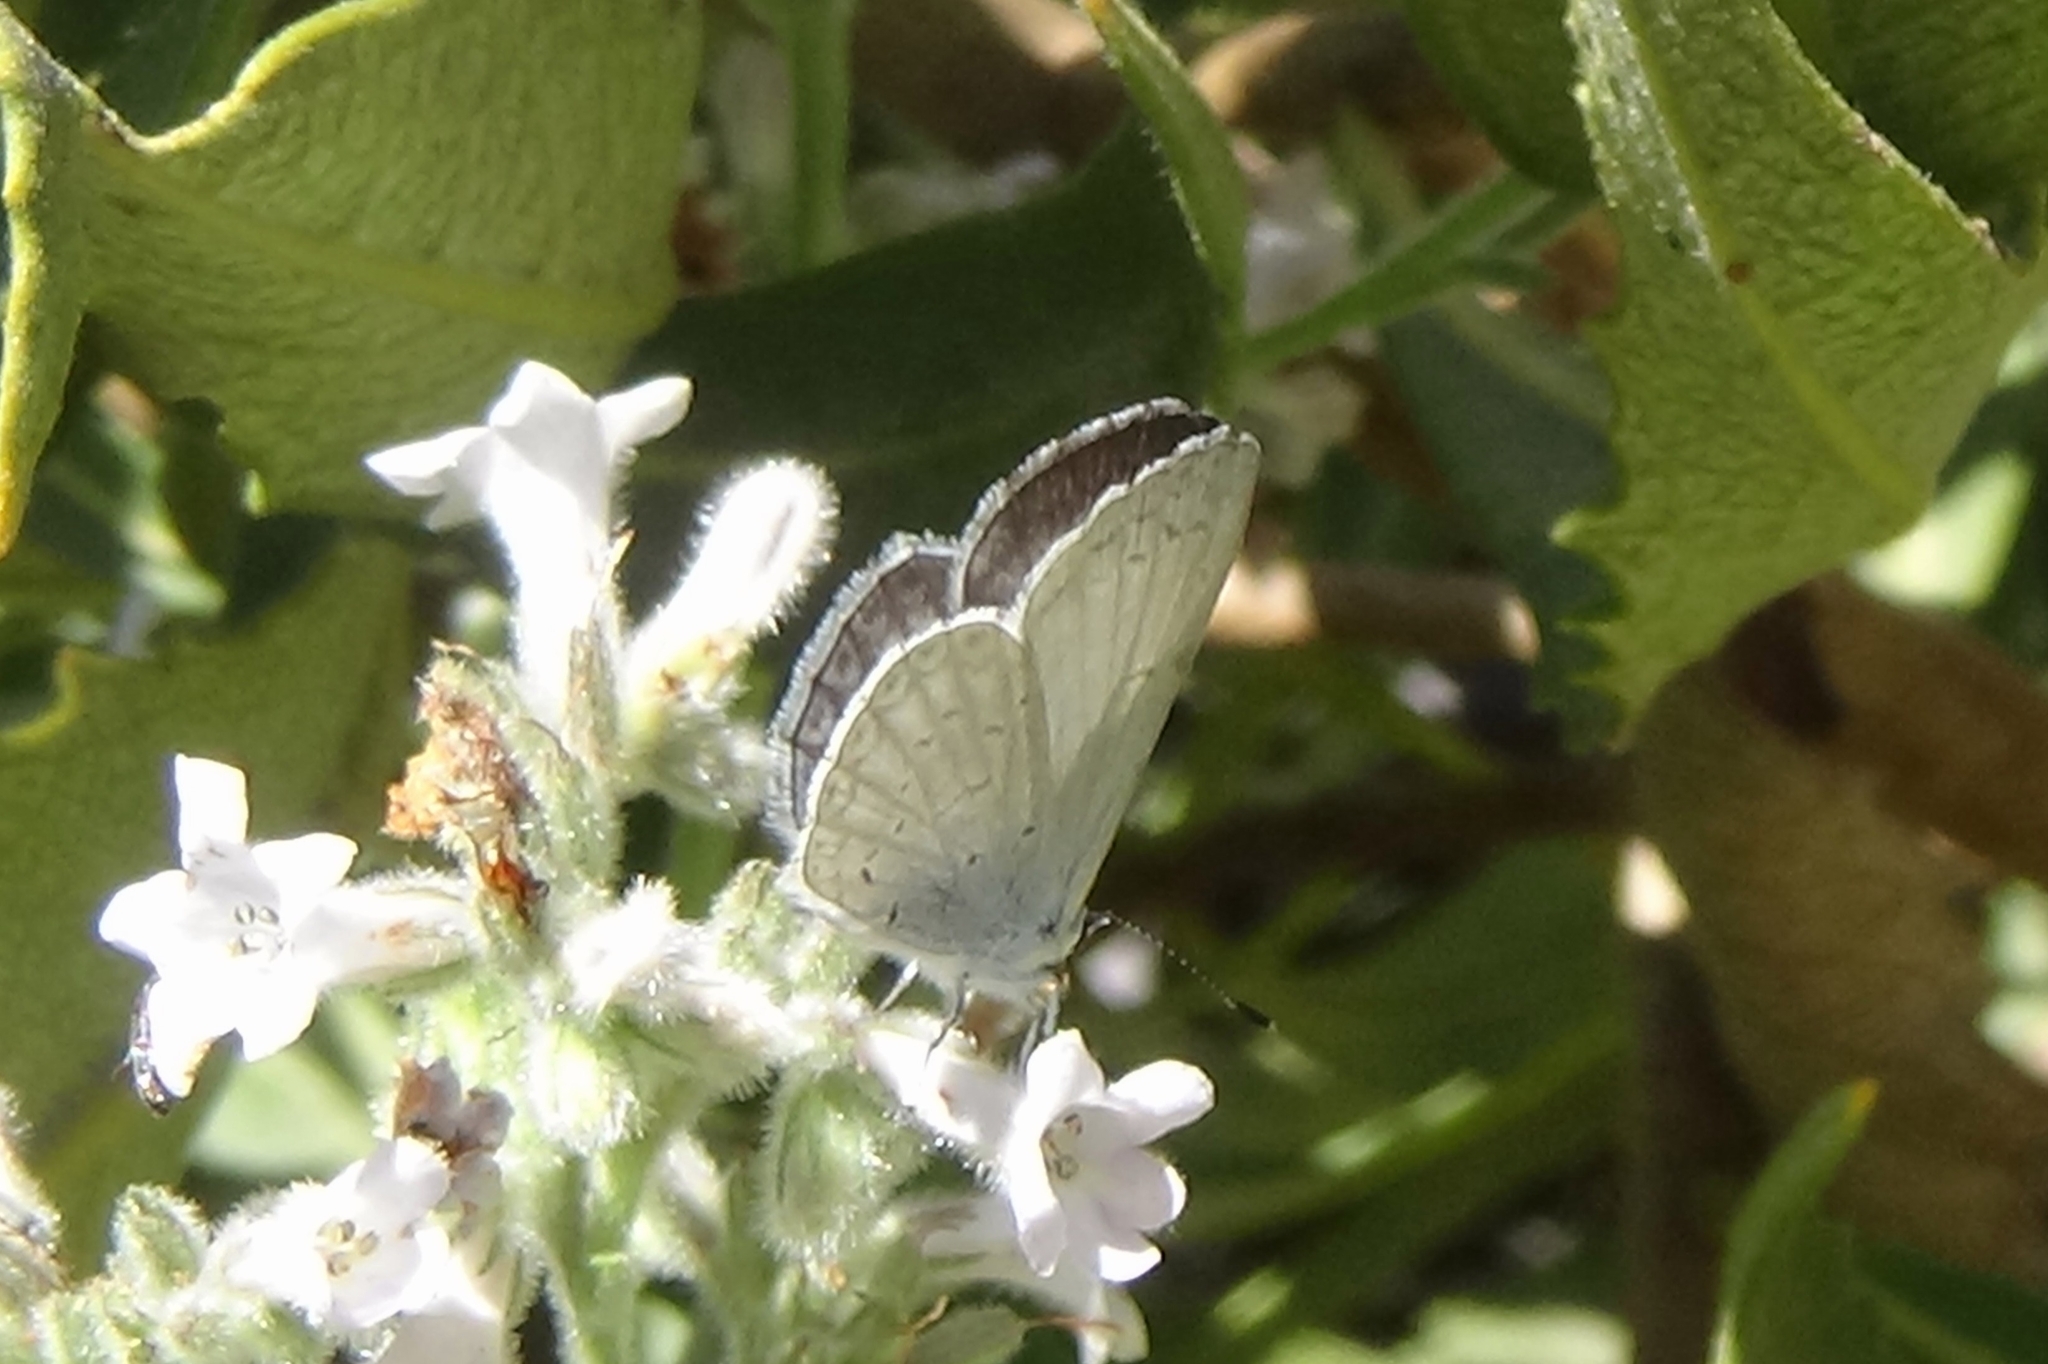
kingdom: Animalia
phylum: Arthropoda
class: Insecta
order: Lepidoptera
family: Lycaenidae
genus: Celastrina
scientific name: Celastrina ladon
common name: Spring azure
